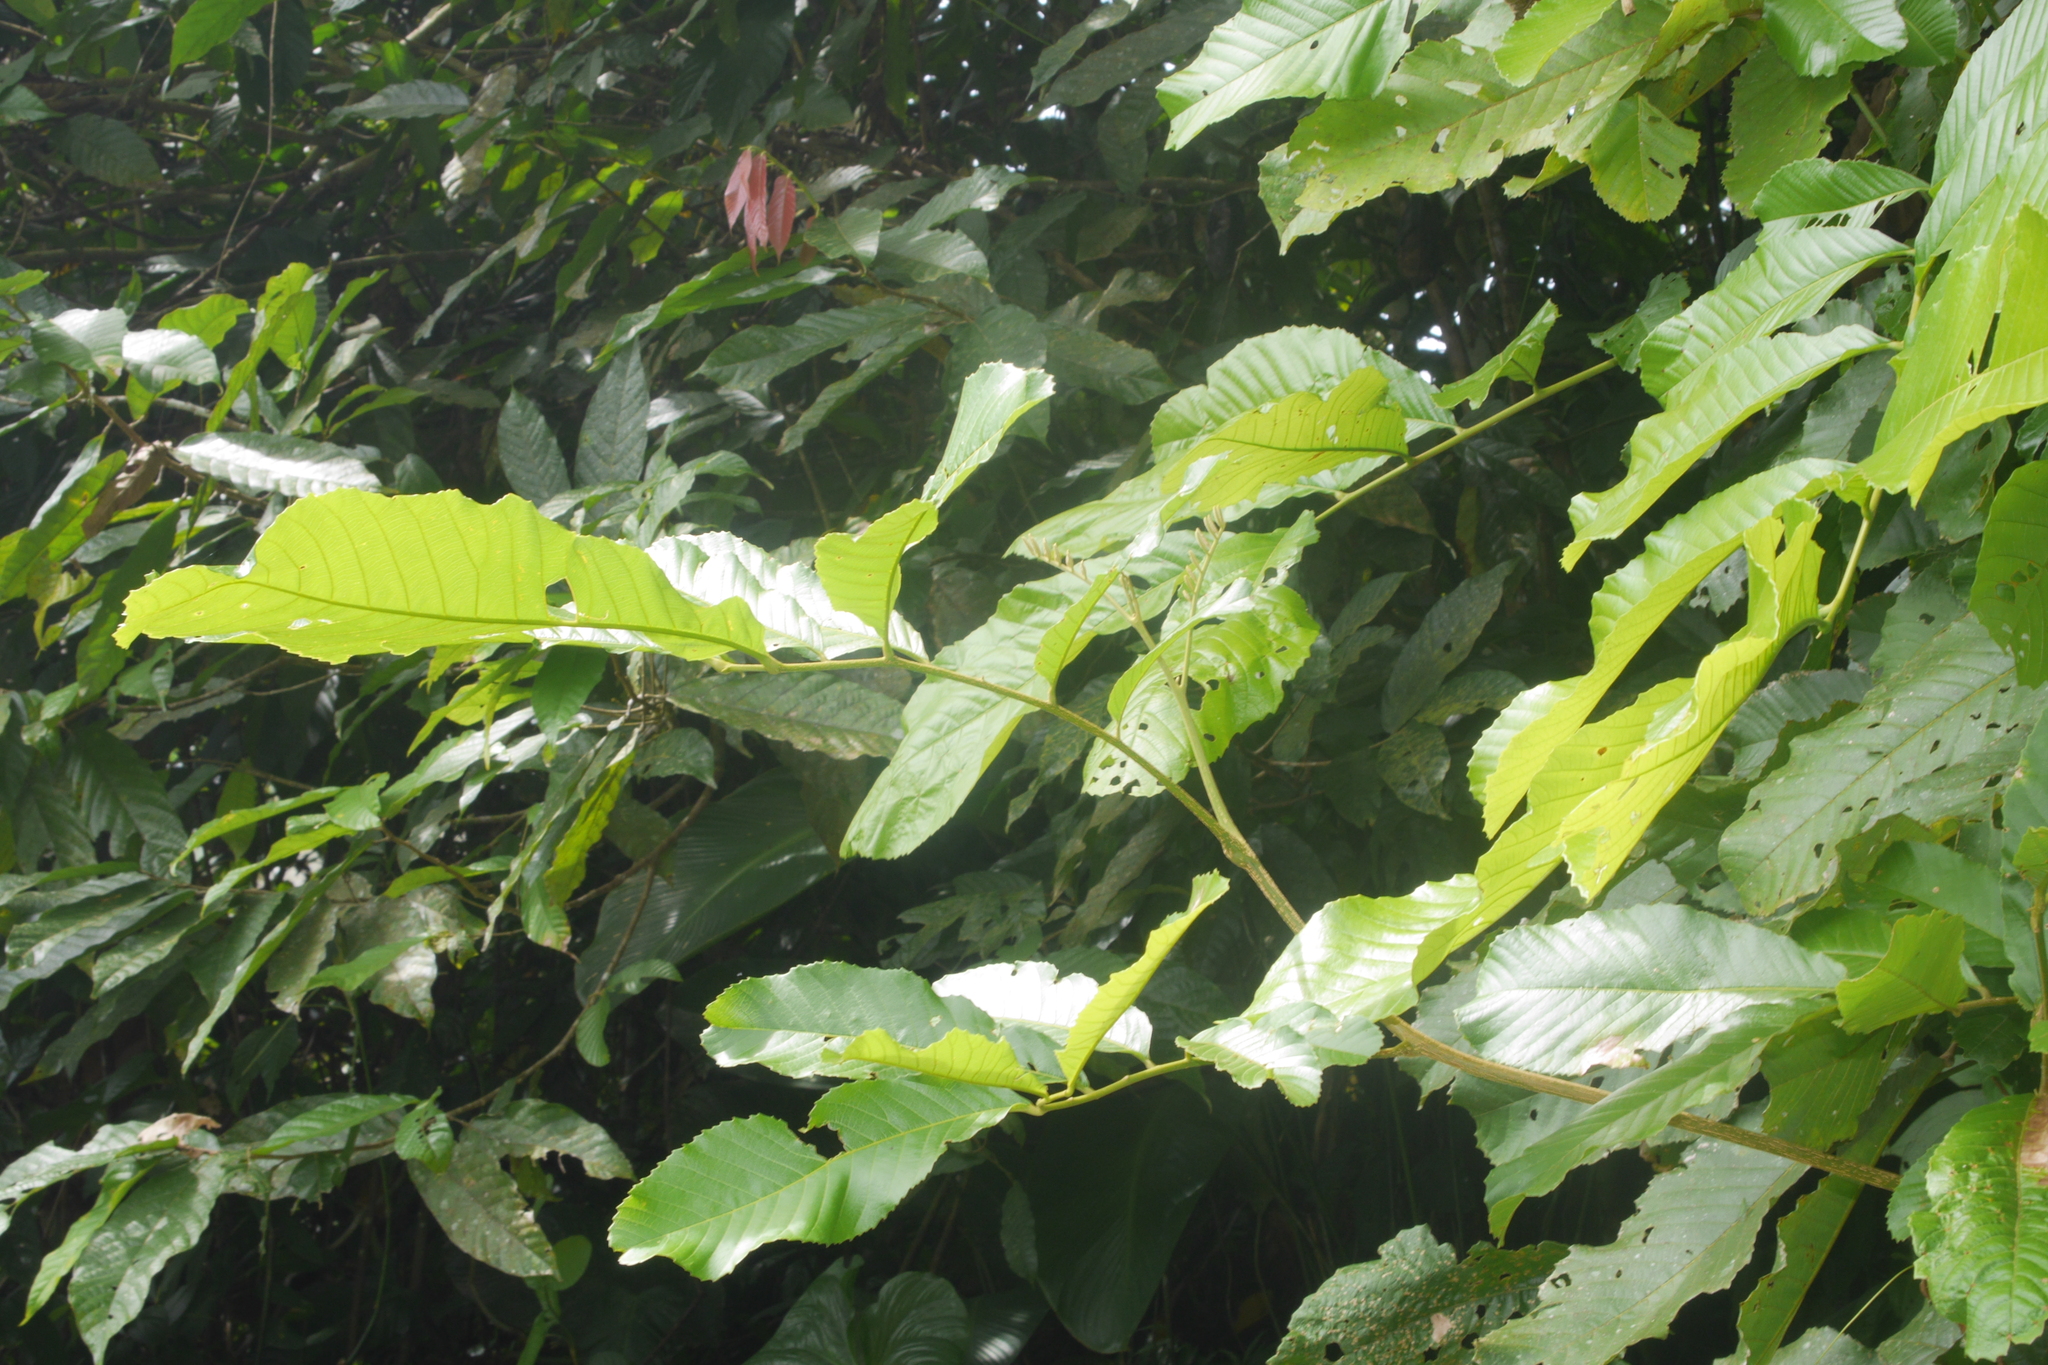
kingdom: Plantae
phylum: Tracheophyta
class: Magnoliopsida
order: Sapindales
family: Sapindaceae
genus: Cupania
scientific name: Cupania americana
